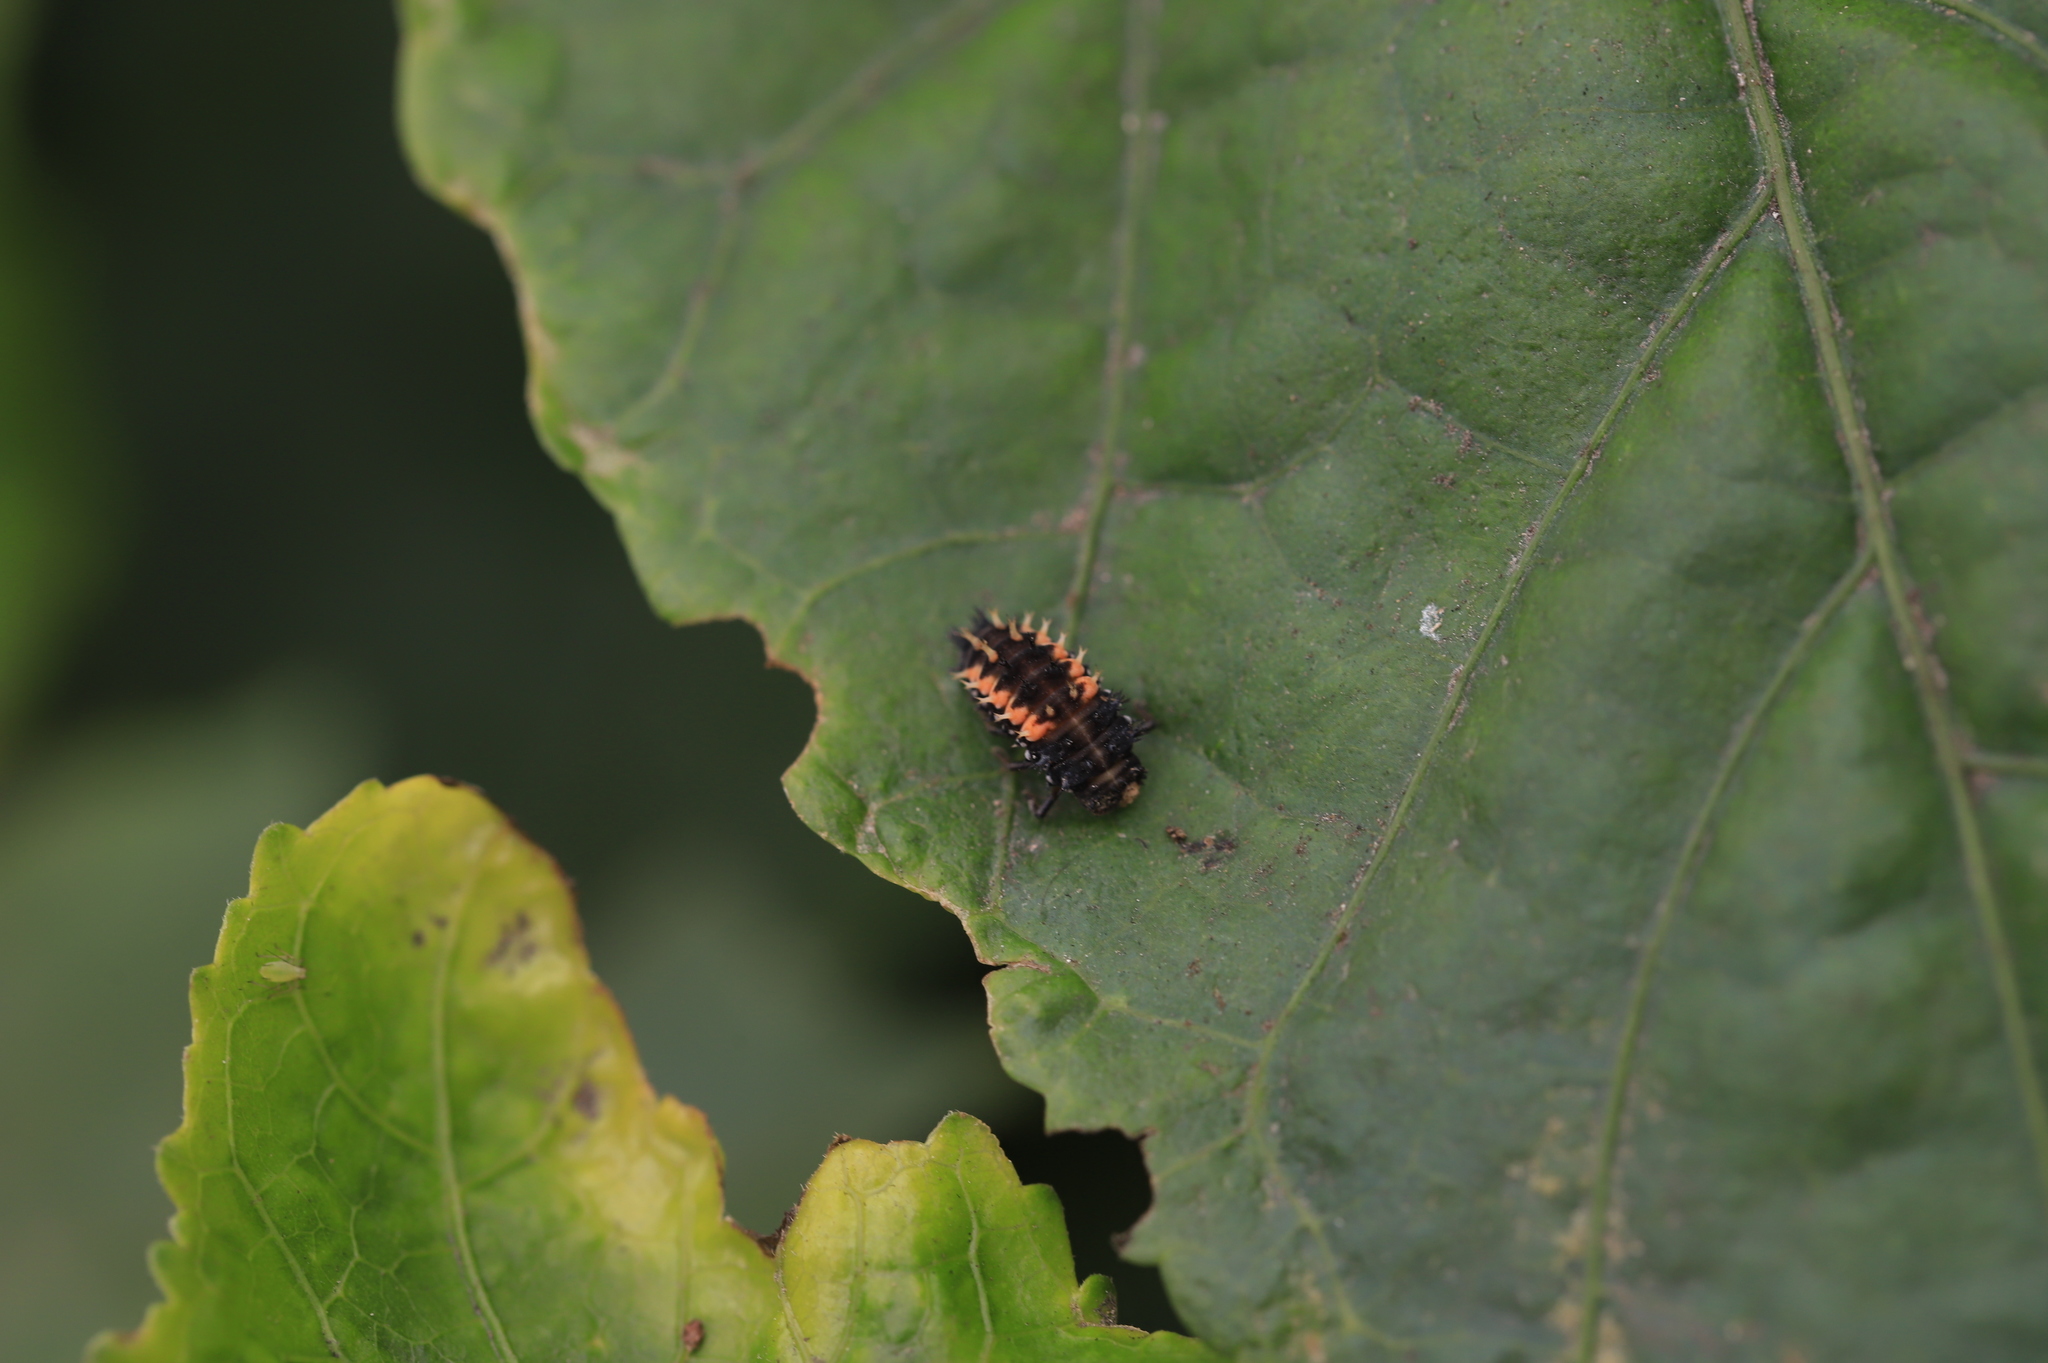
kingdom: Animalia
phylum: Arthropoda
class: Insecta
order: Coleoptera
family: Coccinellidae
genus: Harmonia
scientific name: Harmonia axyridis
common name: Harlequin ladybird
